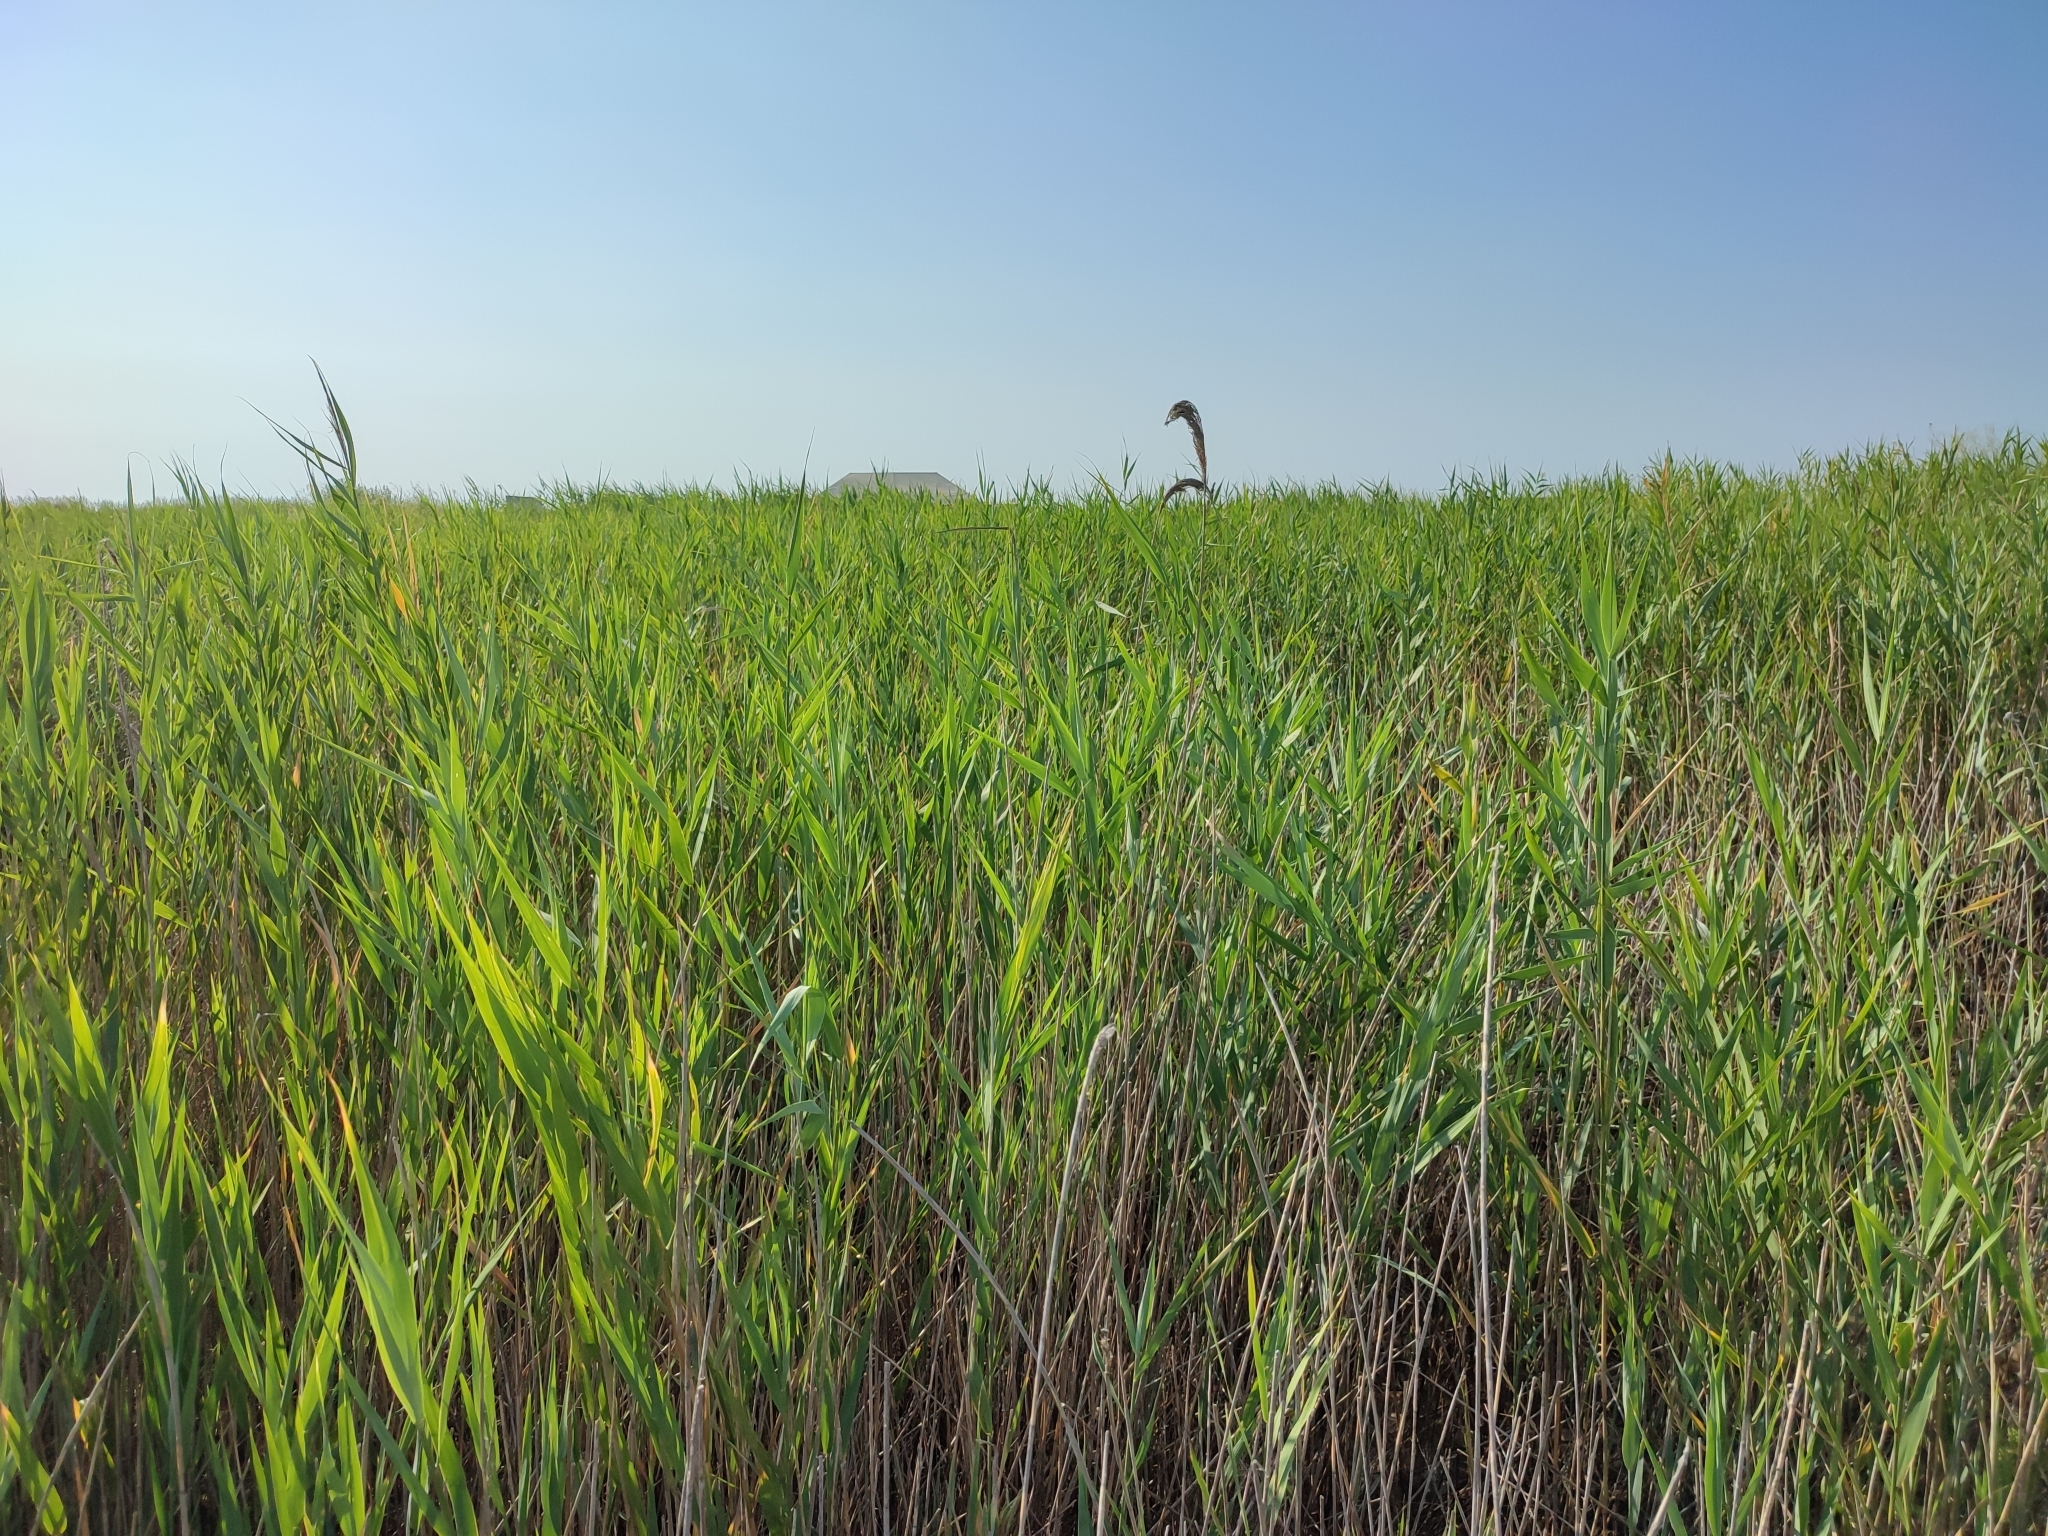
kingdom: Plantae
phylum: Tracheophyta
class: Liliopsida
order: Poales
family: Poaceae
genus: Phragmites
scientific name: Phragmites australis
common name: Common reed
